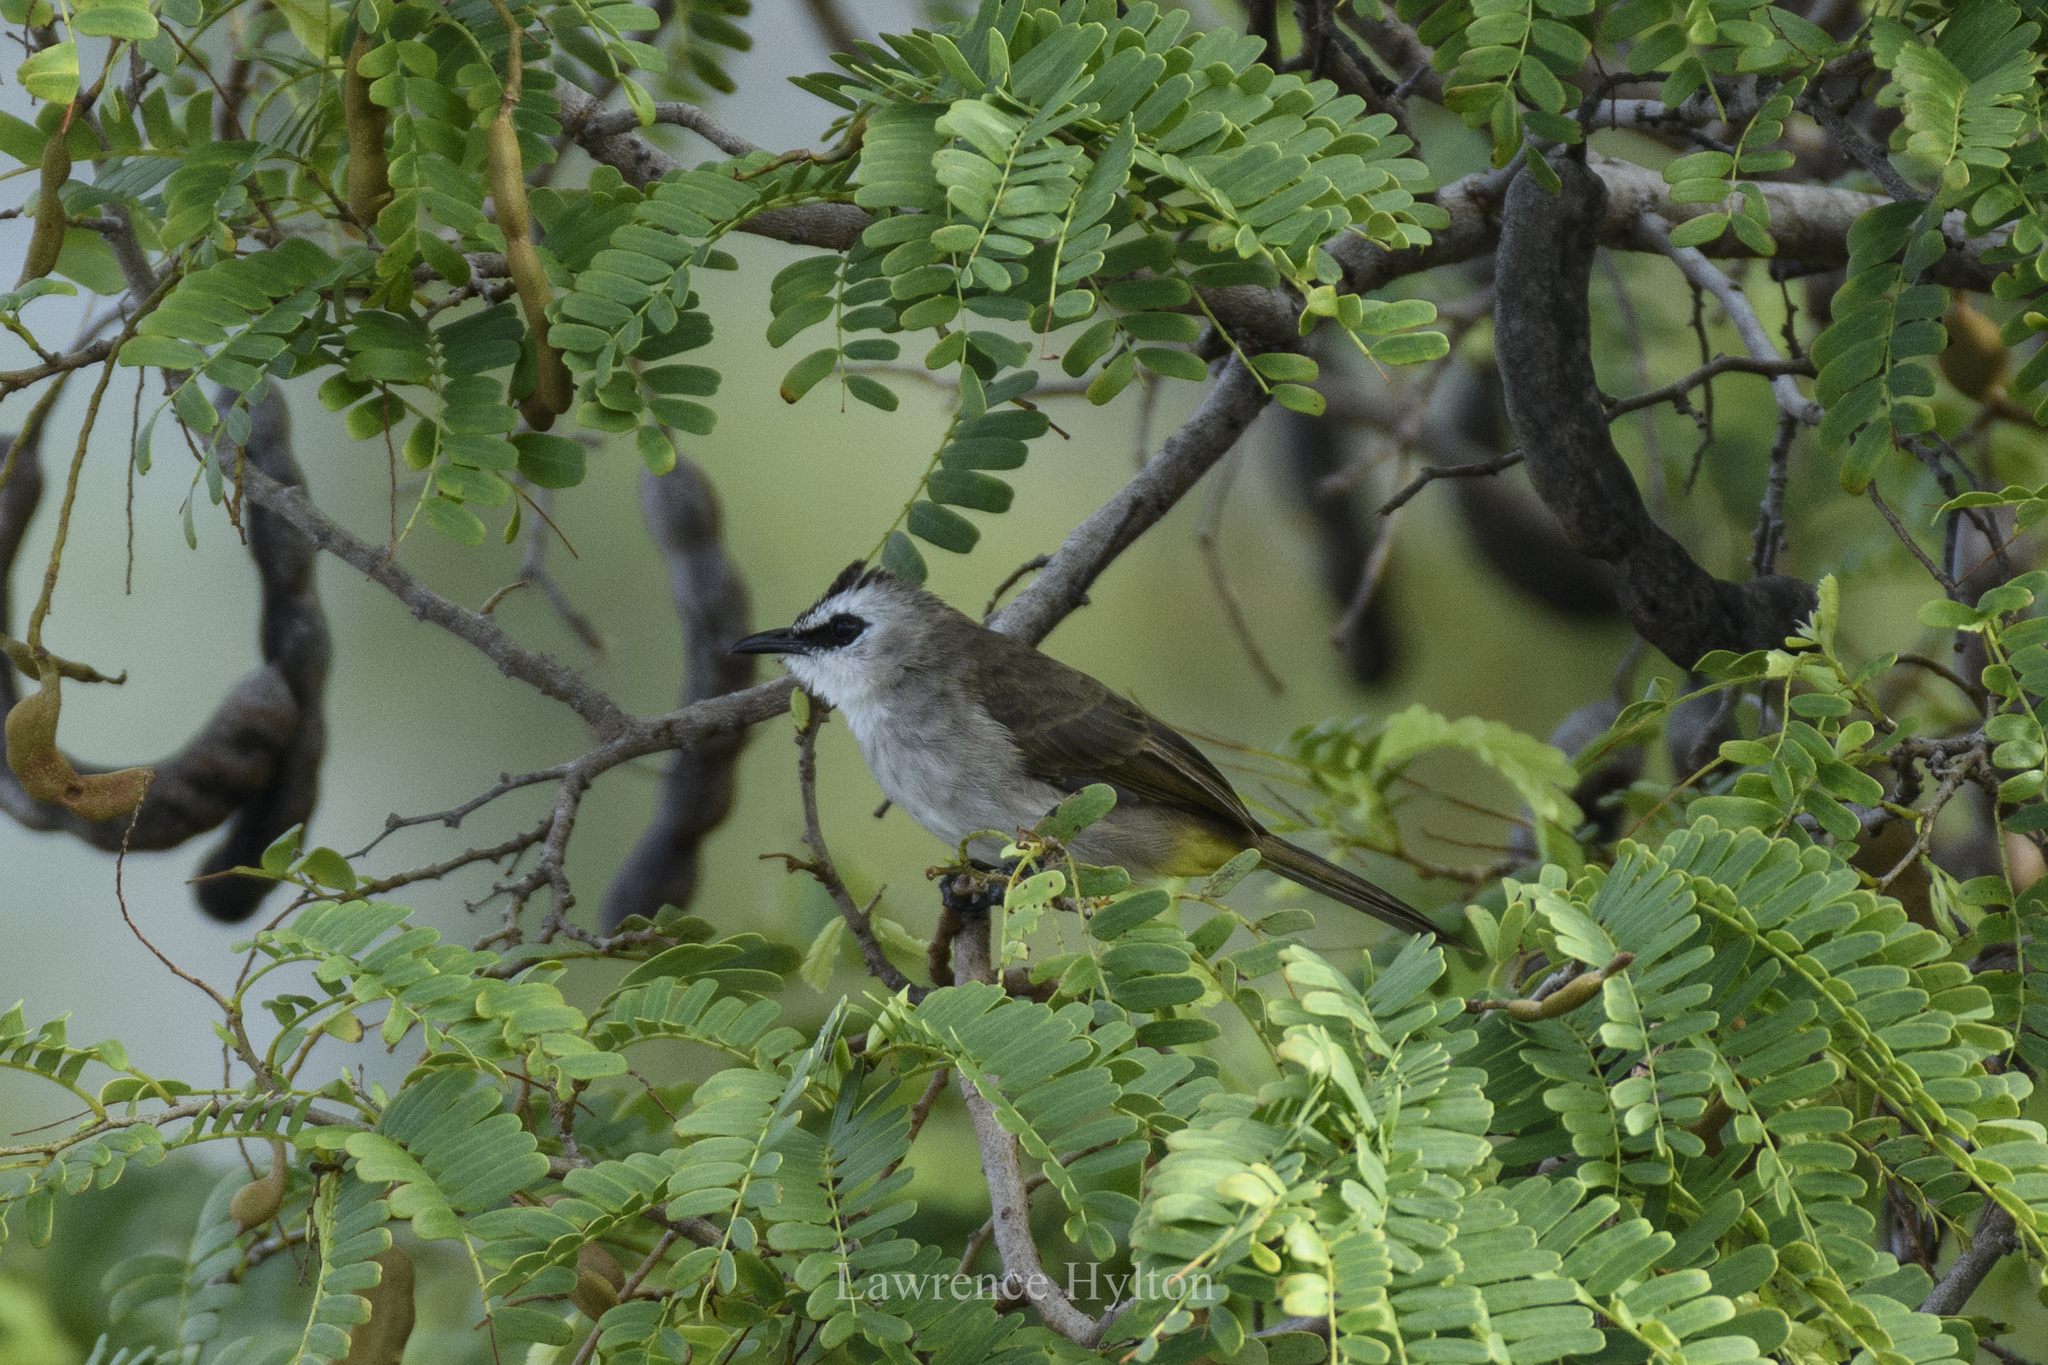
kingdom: Animalia
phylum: Chordata
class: Aves
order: Passeriformes
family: Pycnonotidae
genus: Pycnonotus
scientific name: Pycnonotus goiavier
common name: Yellow-vented bulbul
